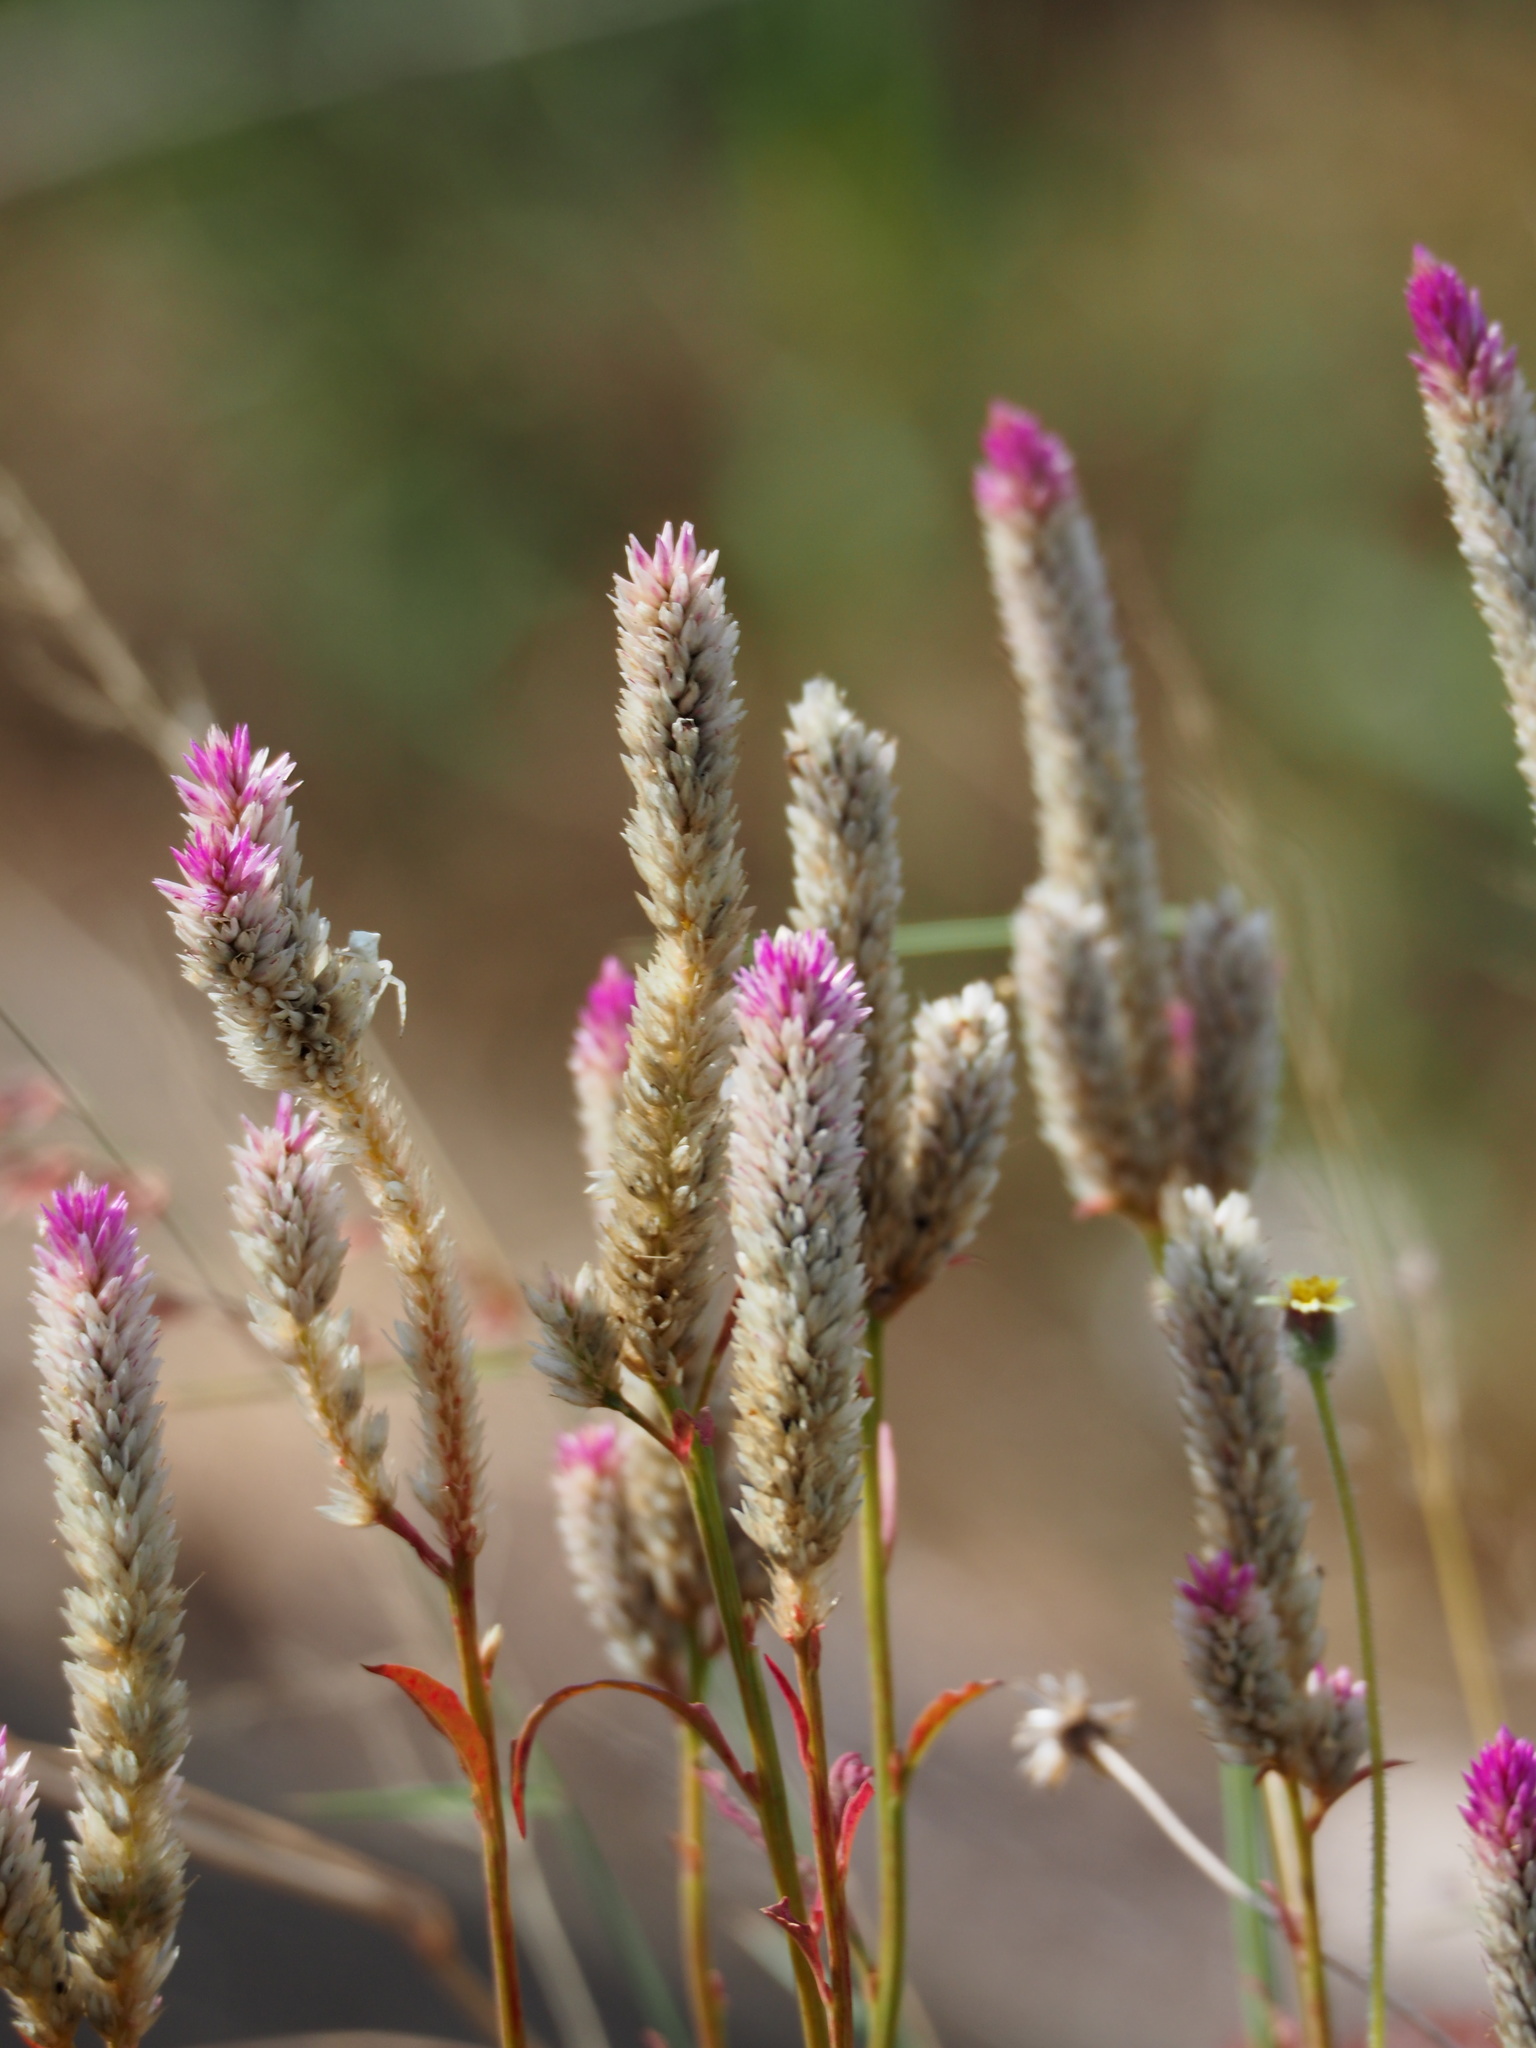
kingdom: Plantae
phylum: Tracheophyta
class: Magnoliopsida
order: Caryophyllales
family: Amaranthaceae
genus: Celosia
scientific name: Celosia argentea
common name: Feather cockscomb
